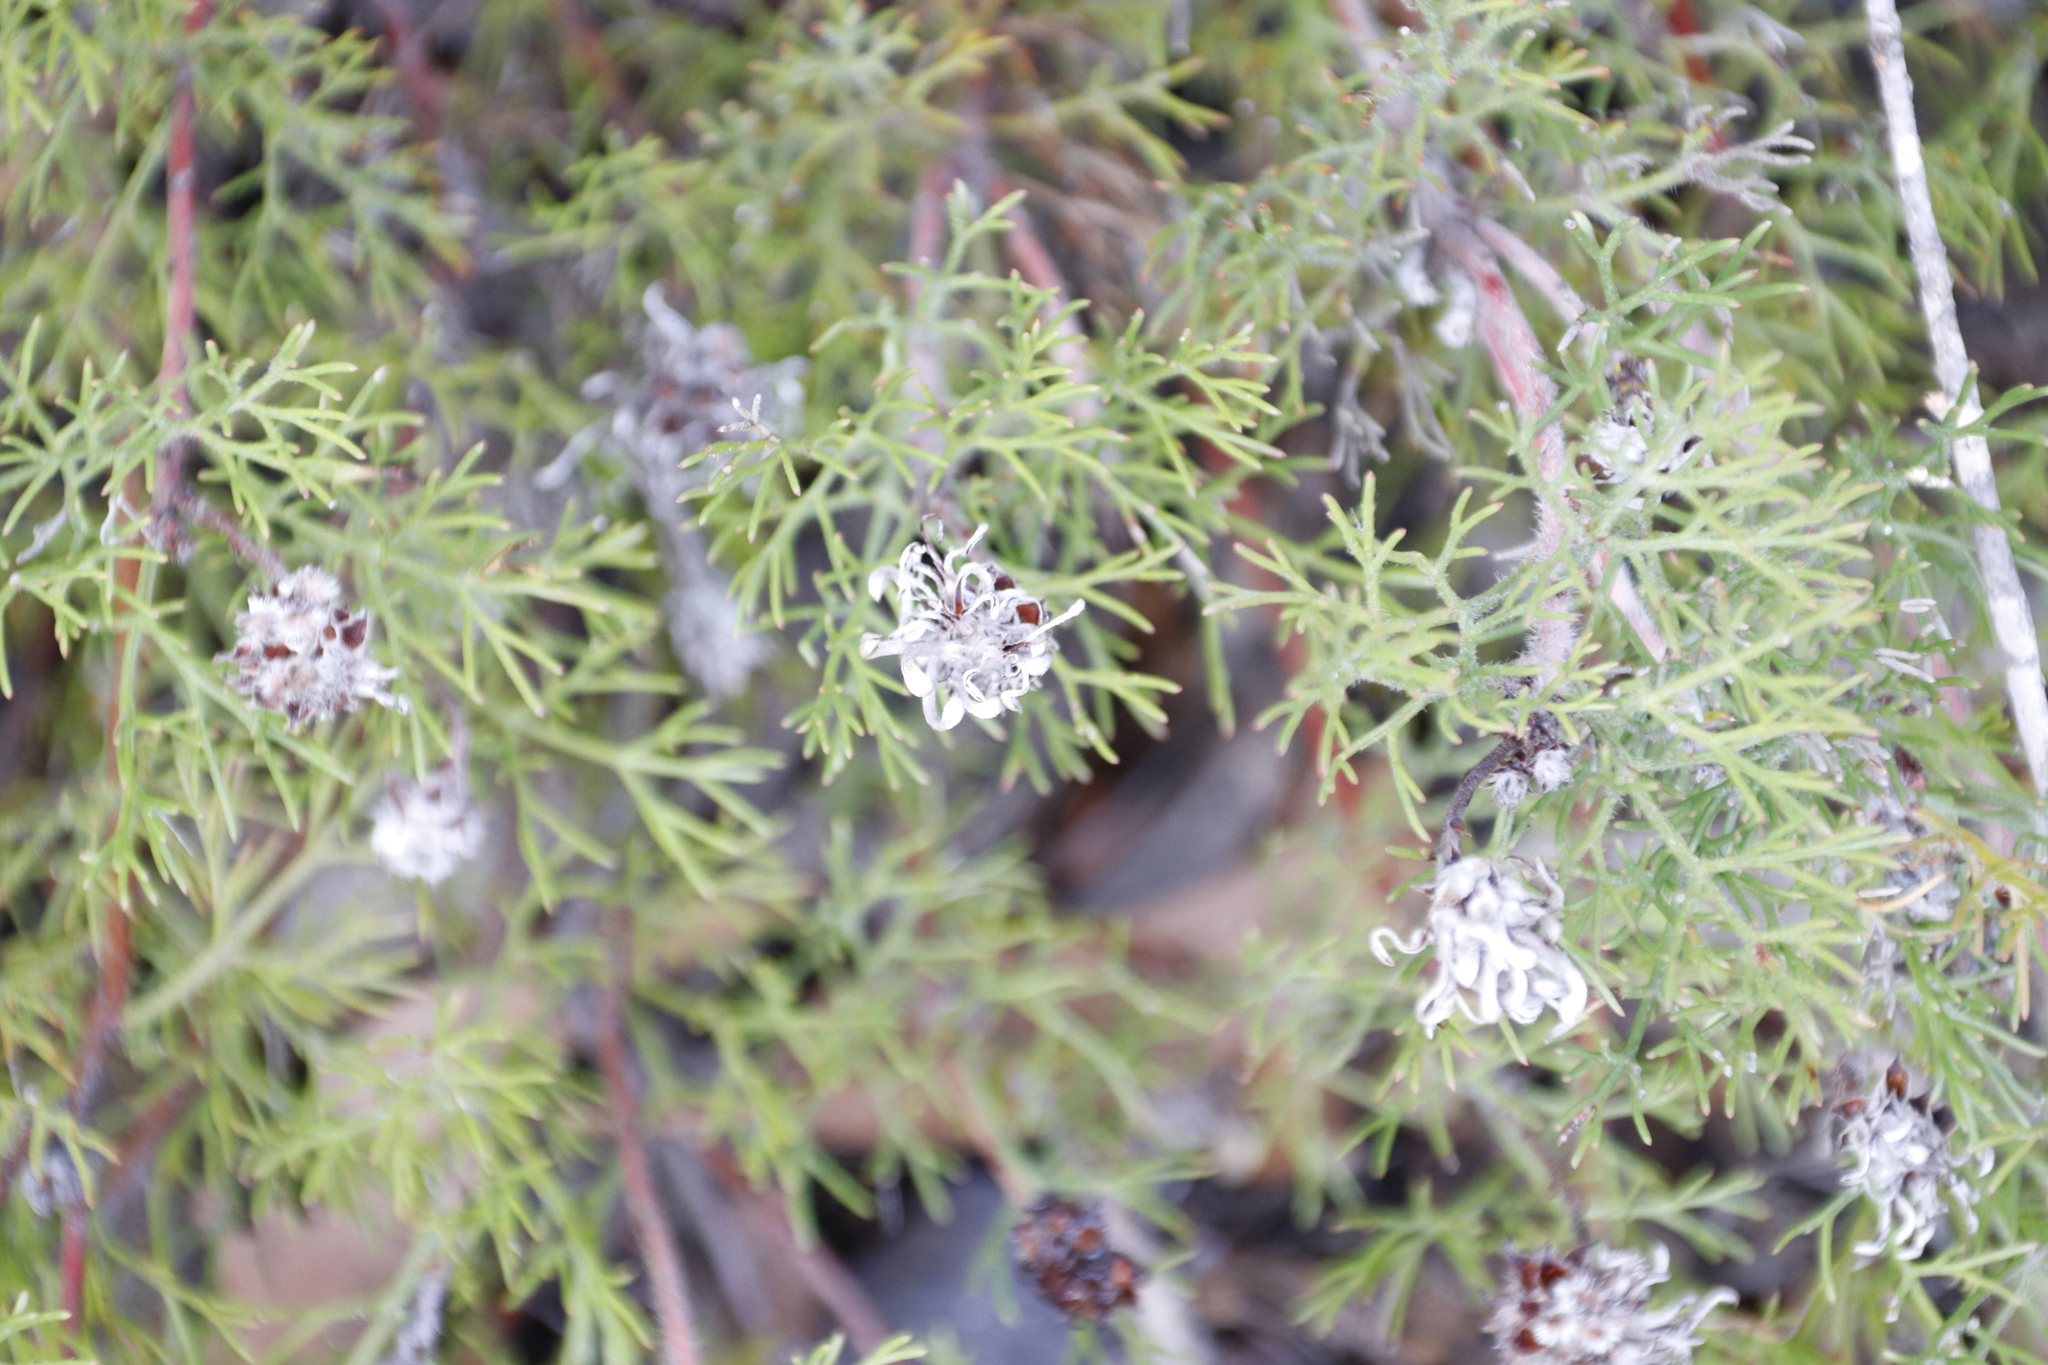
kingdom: Plantae
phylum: Tracheophyta
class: Magnoliopsida
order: Proteales
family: Proteaceae
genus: Serruria
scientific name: Serruria
